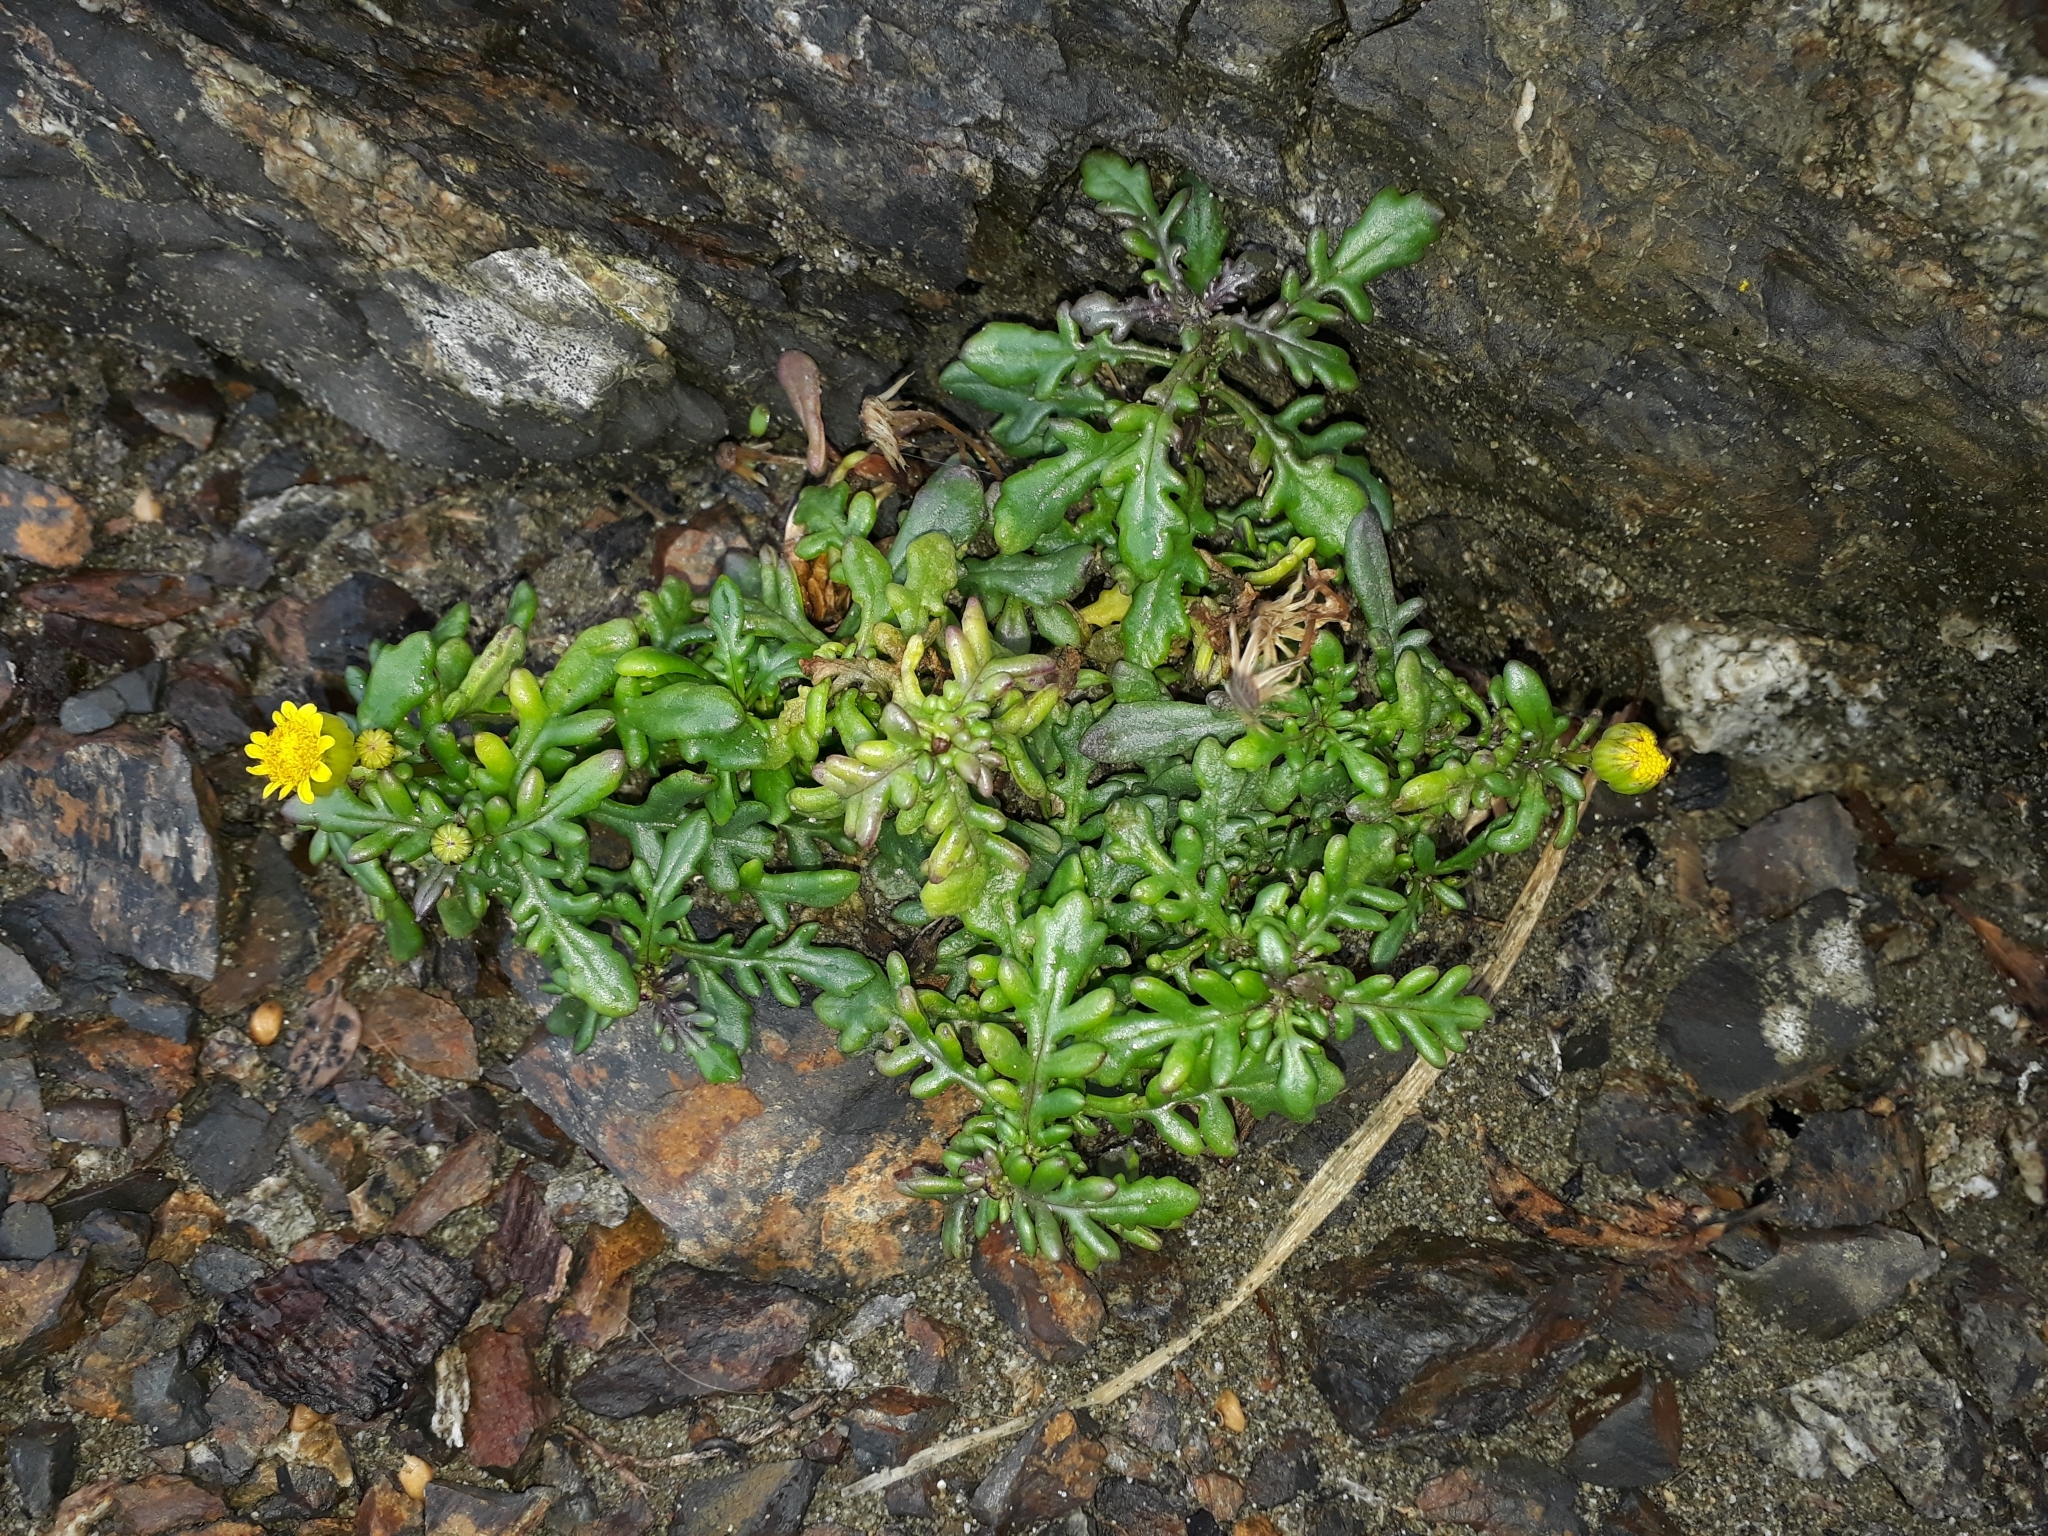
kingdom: Plantae
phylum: Tracheophyta
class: Magnoliopsida
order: Asterales
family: Asteraceae
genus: Senecio
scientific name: Senecio lautus
